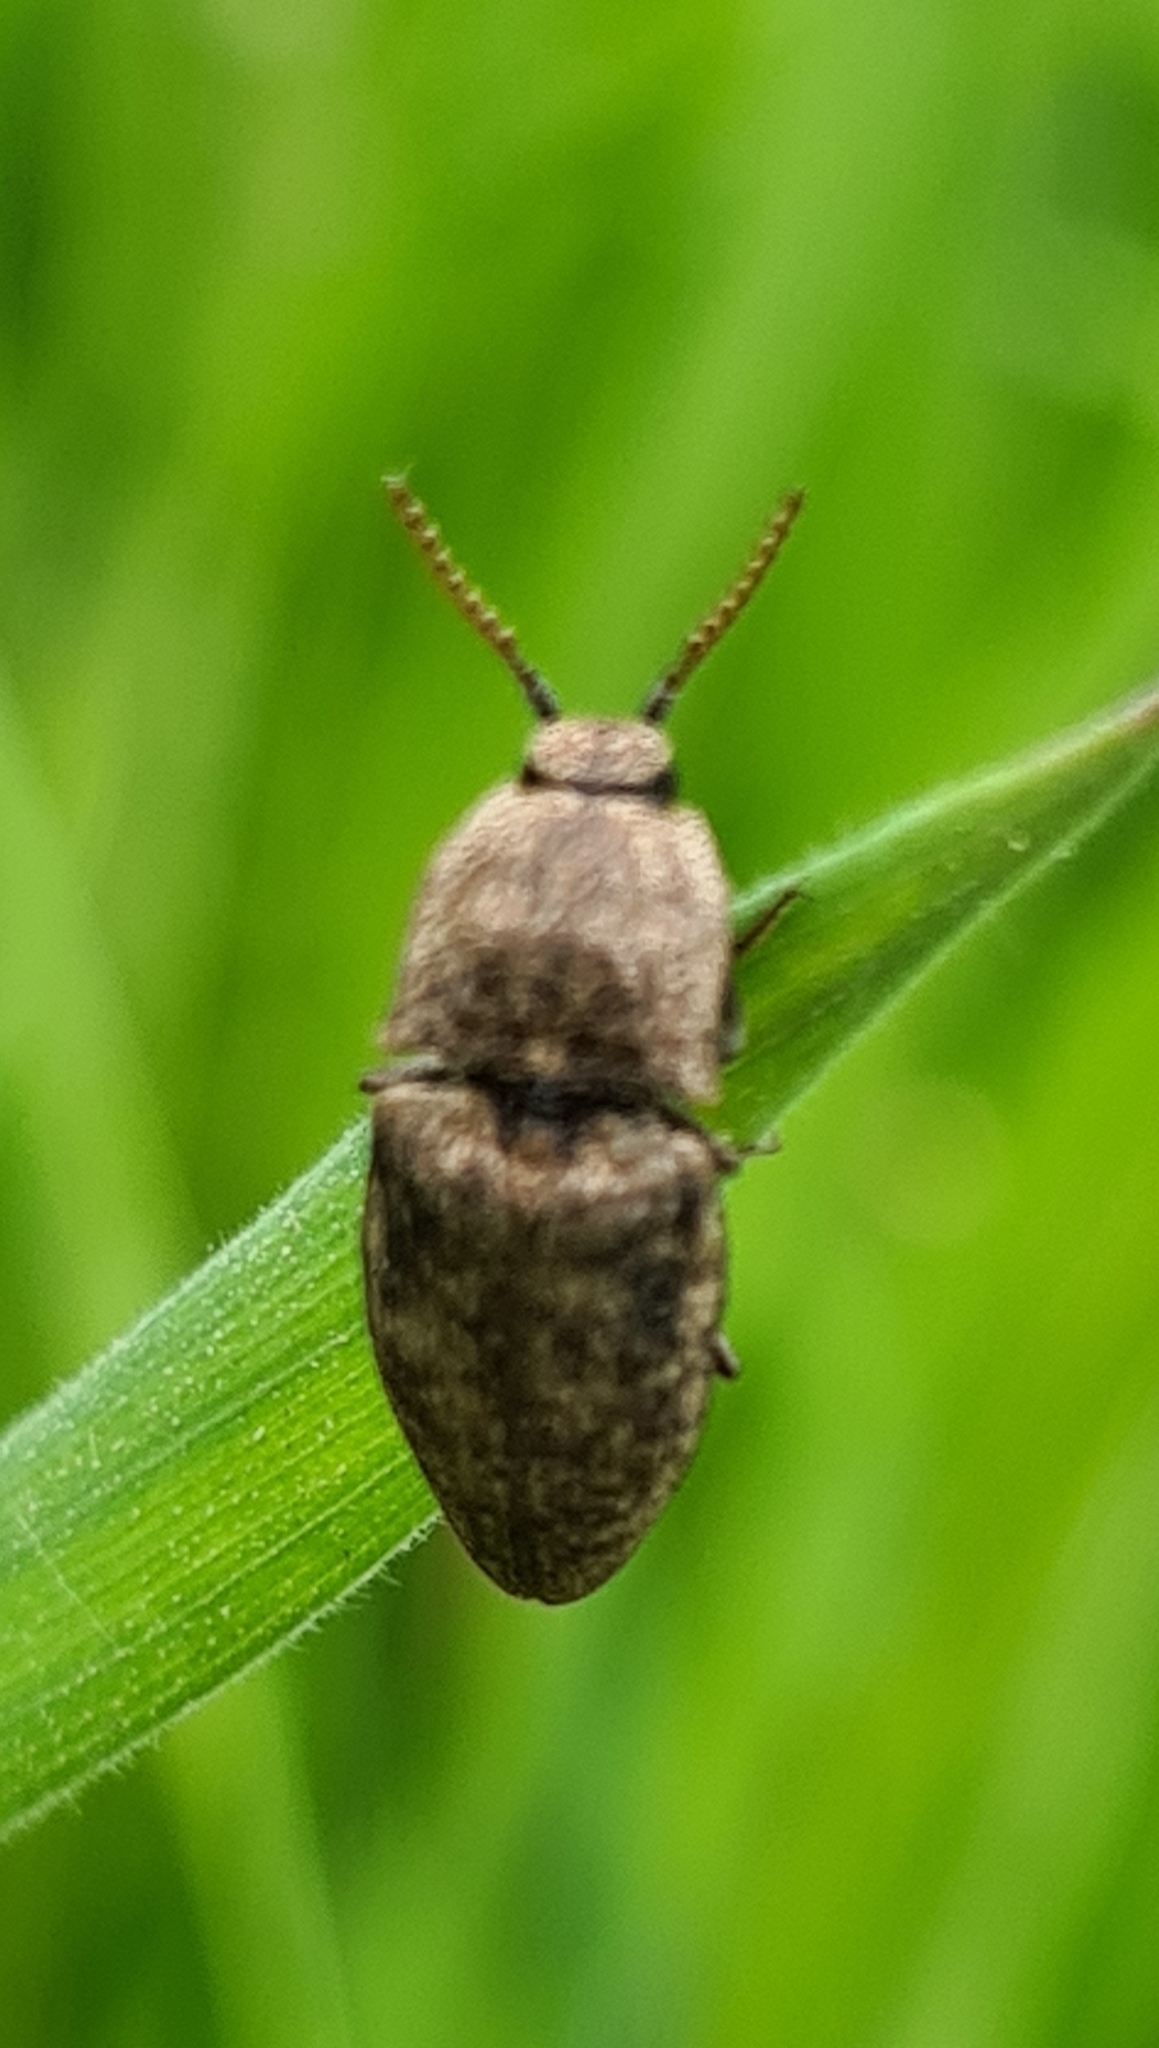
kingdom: Animalia
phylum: Arthropoda
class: Insecta
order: Coleoptera
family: Elateridae
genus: Agrypnus
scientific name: Agrypnus murinus
